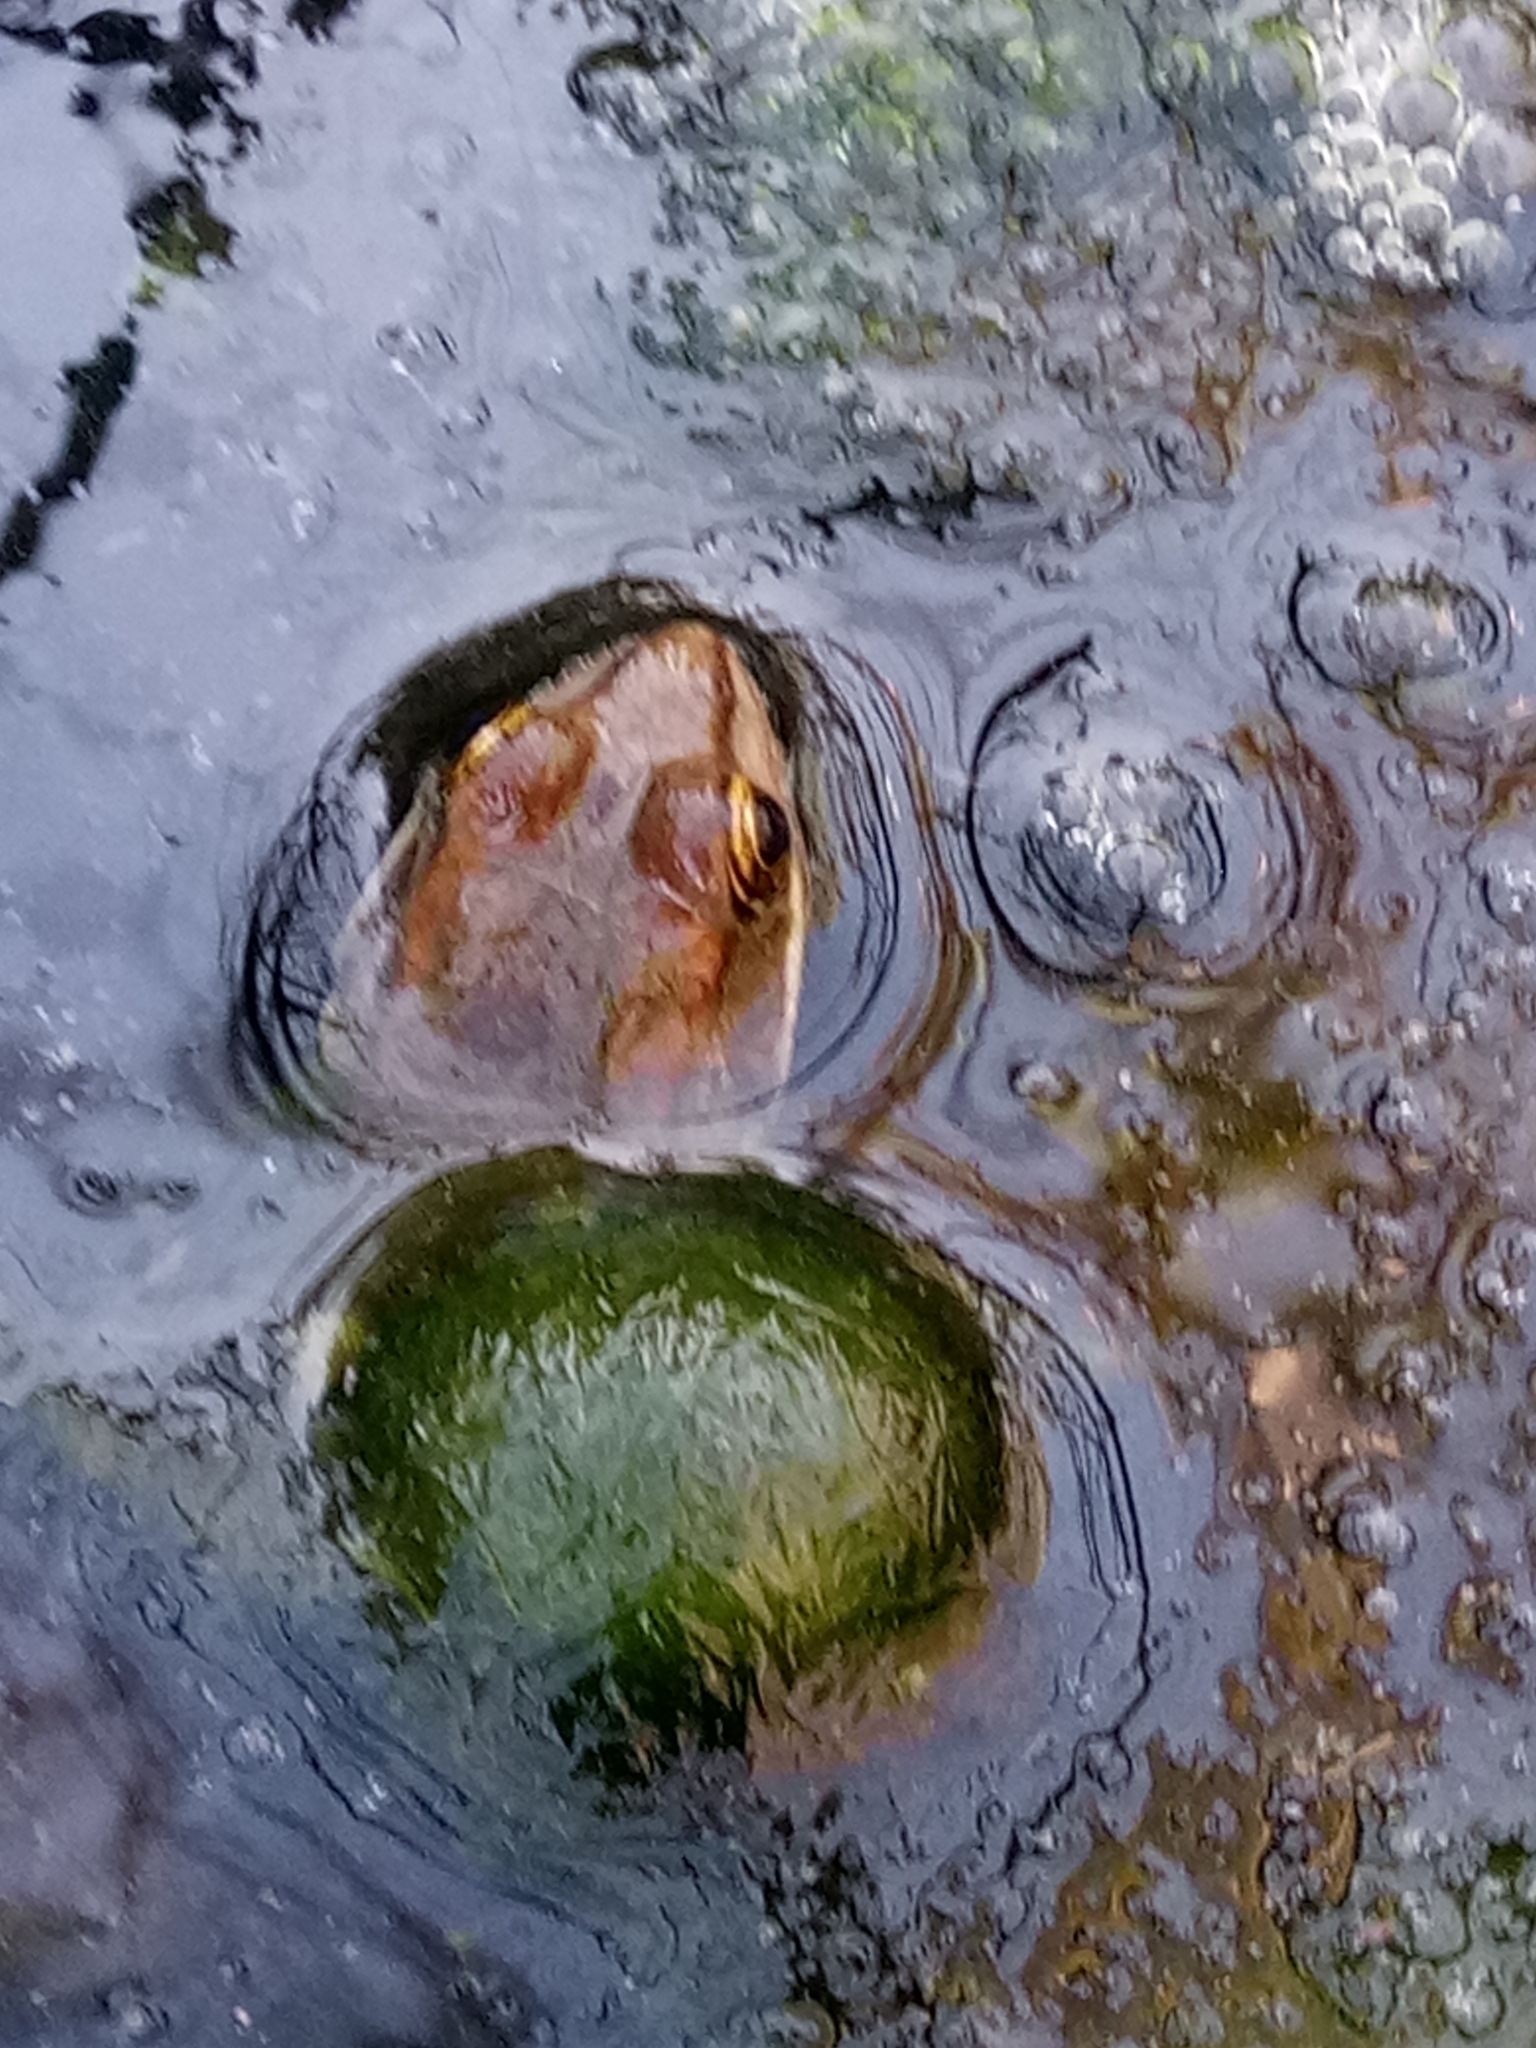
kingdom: Animalia
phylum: Chordata
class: Amphibia
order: Anura
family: Ranidae
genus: Pelophylax
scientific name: Pelophylax saharicus
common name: Sahara frog
